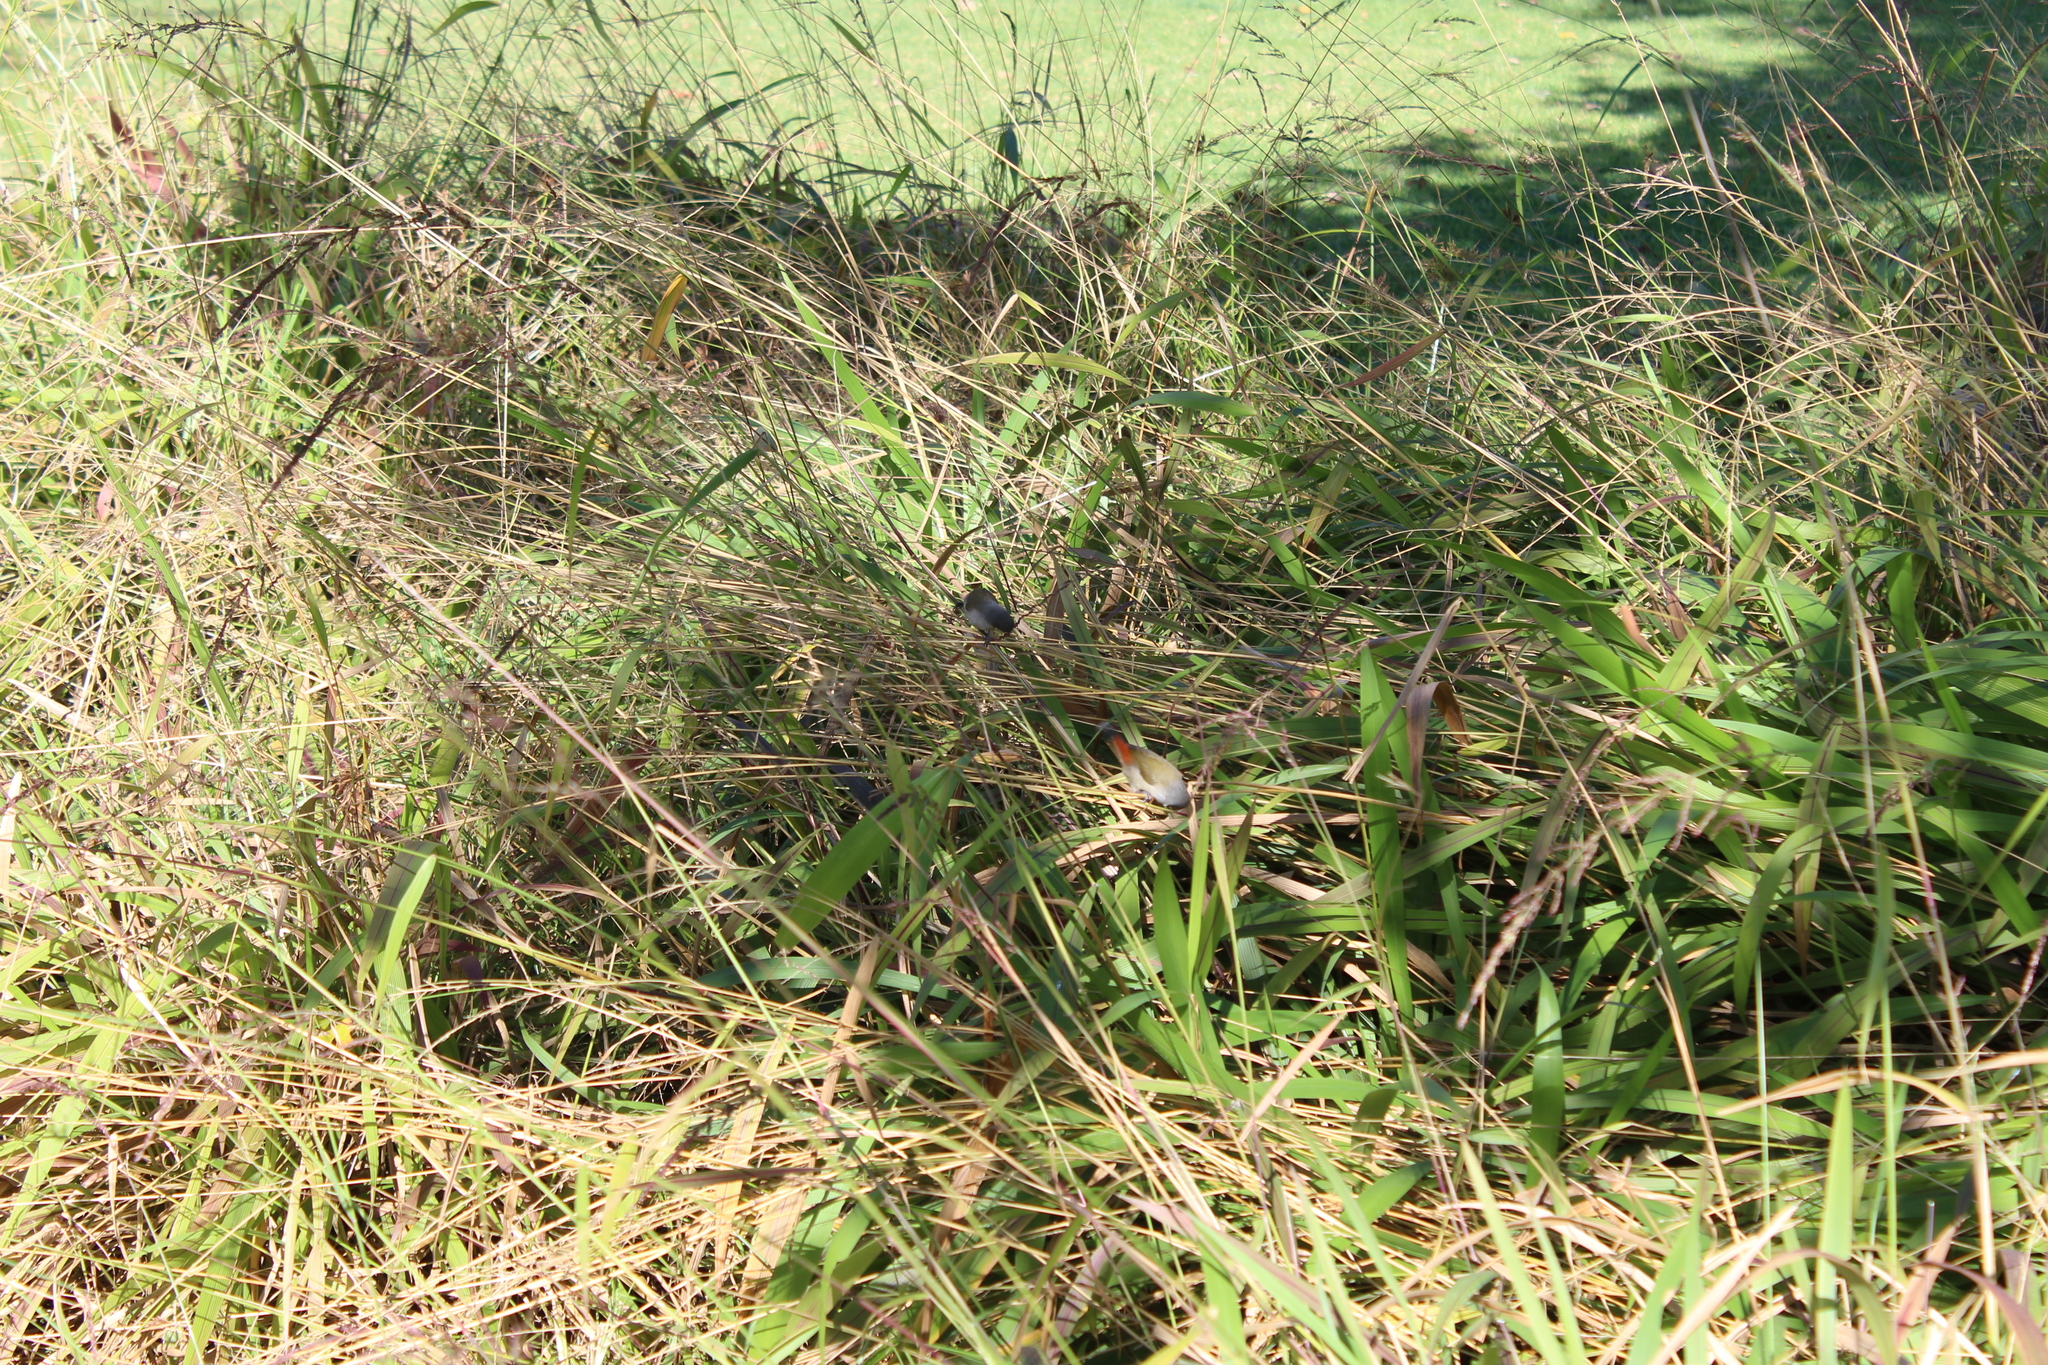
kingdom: Animalia
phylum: Chordata
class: Aves
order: Passeriformes
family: Estrildidae
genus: Coccopygia
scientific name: Coccopygia melanotis
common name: Swee waxbill
